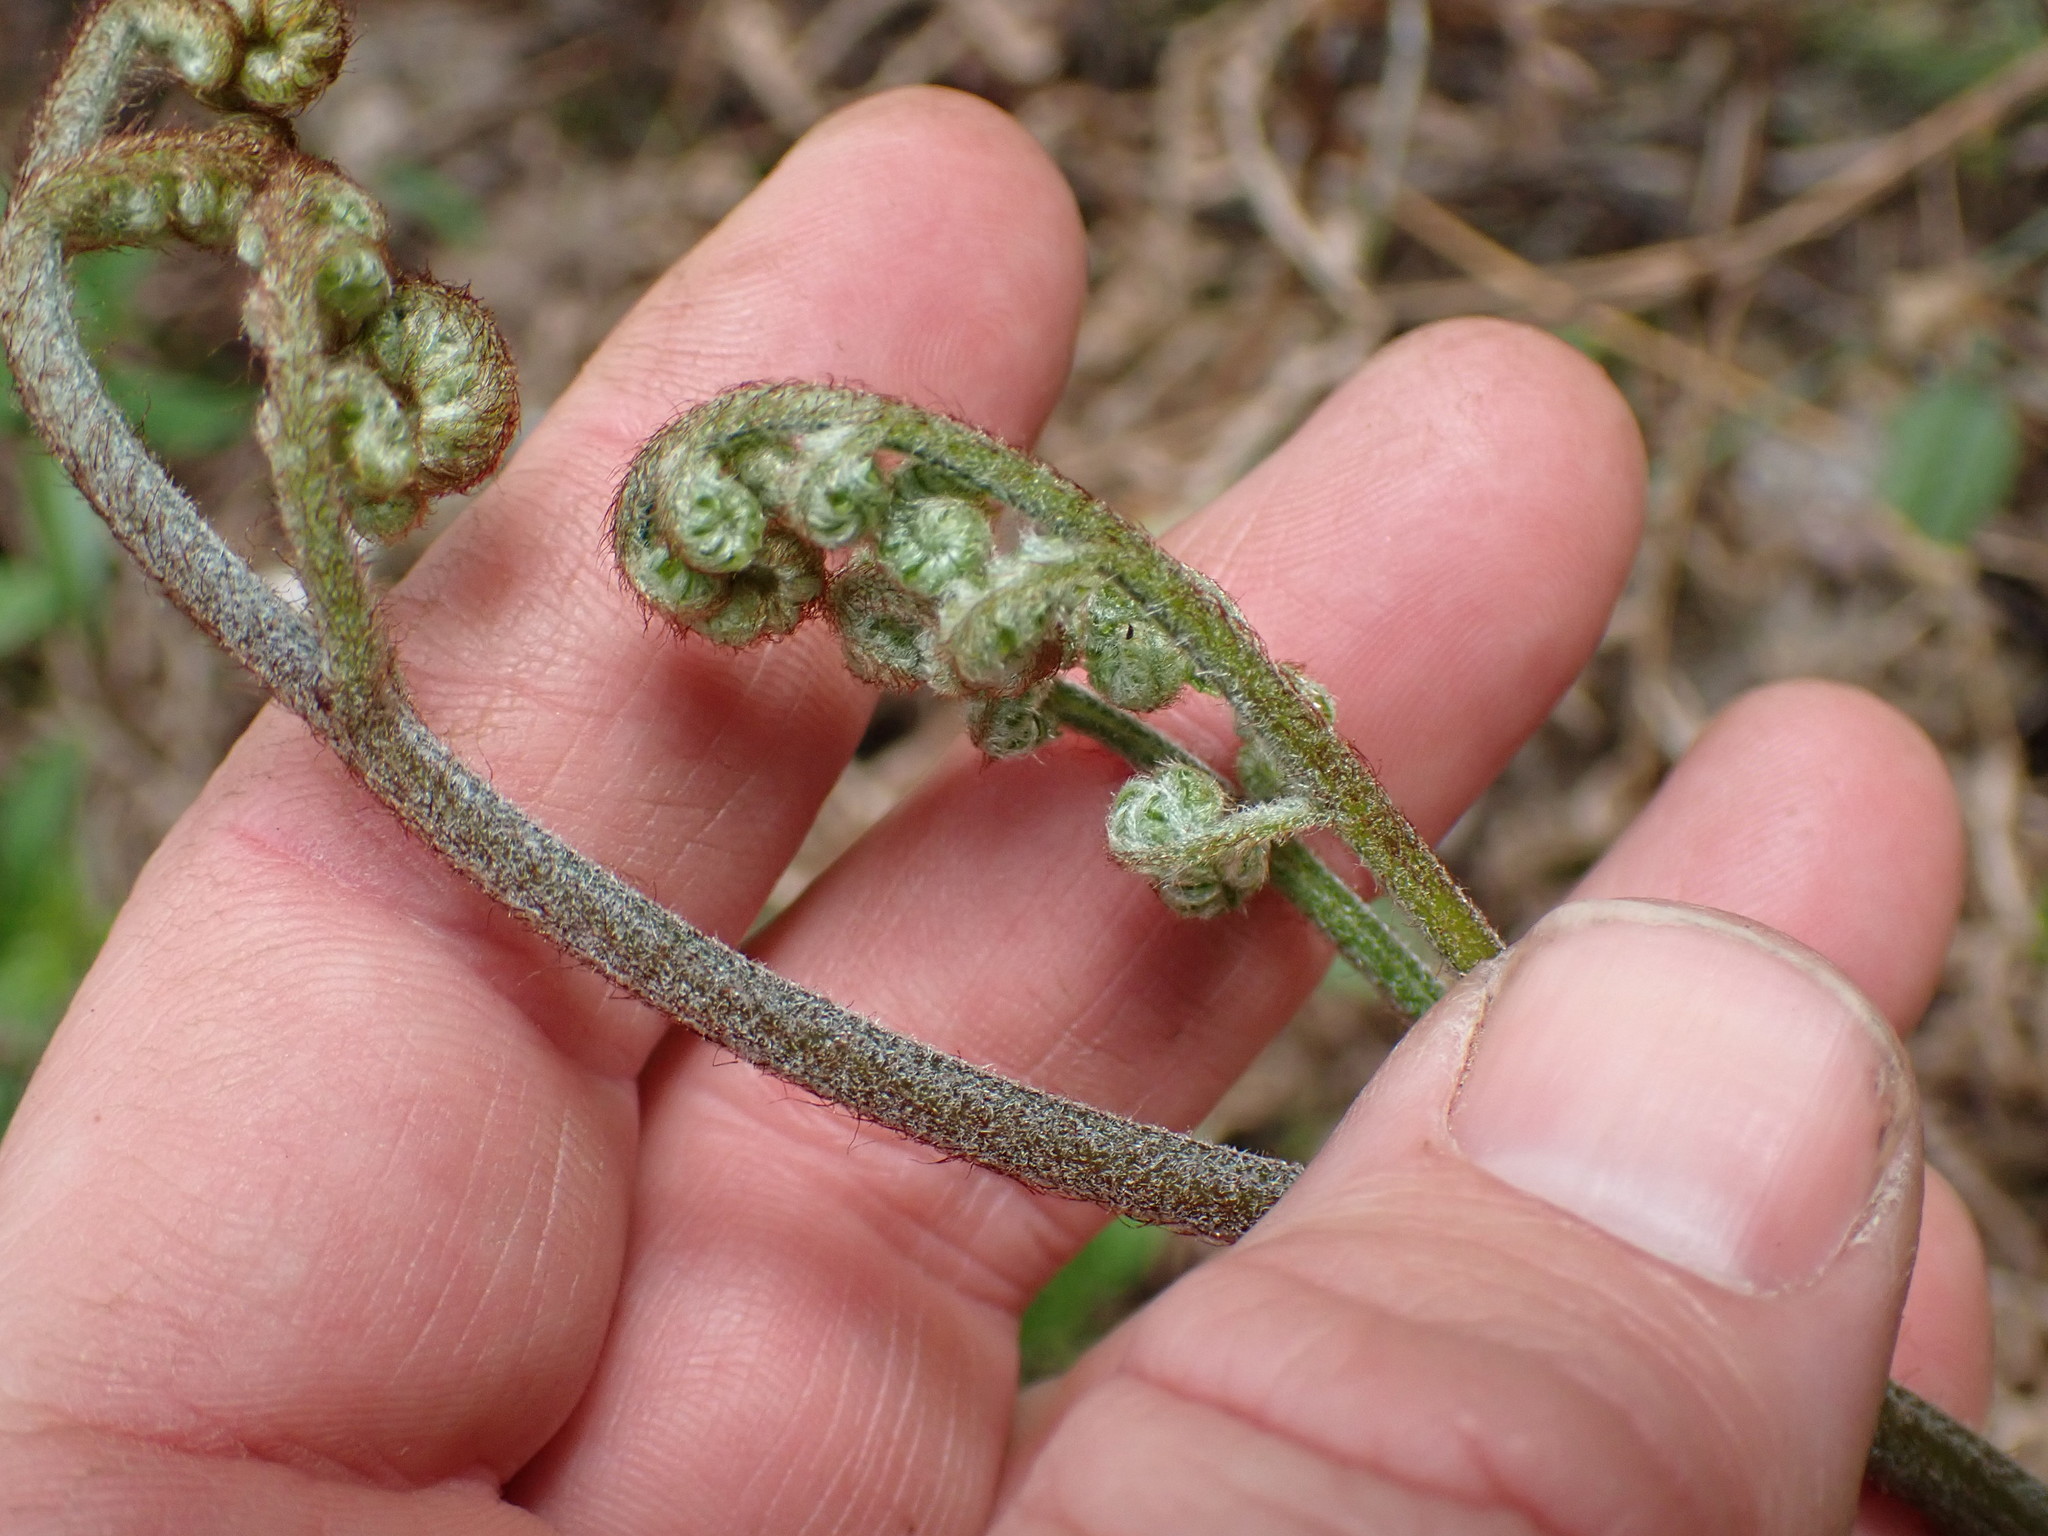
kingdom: Plantae
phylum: Tracheophyta
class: Polypodiopsida
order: Polypodiales
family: Dennstaedtiaceae
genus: Pteridium
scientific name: Pteridium aquilinum
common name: Bracken
